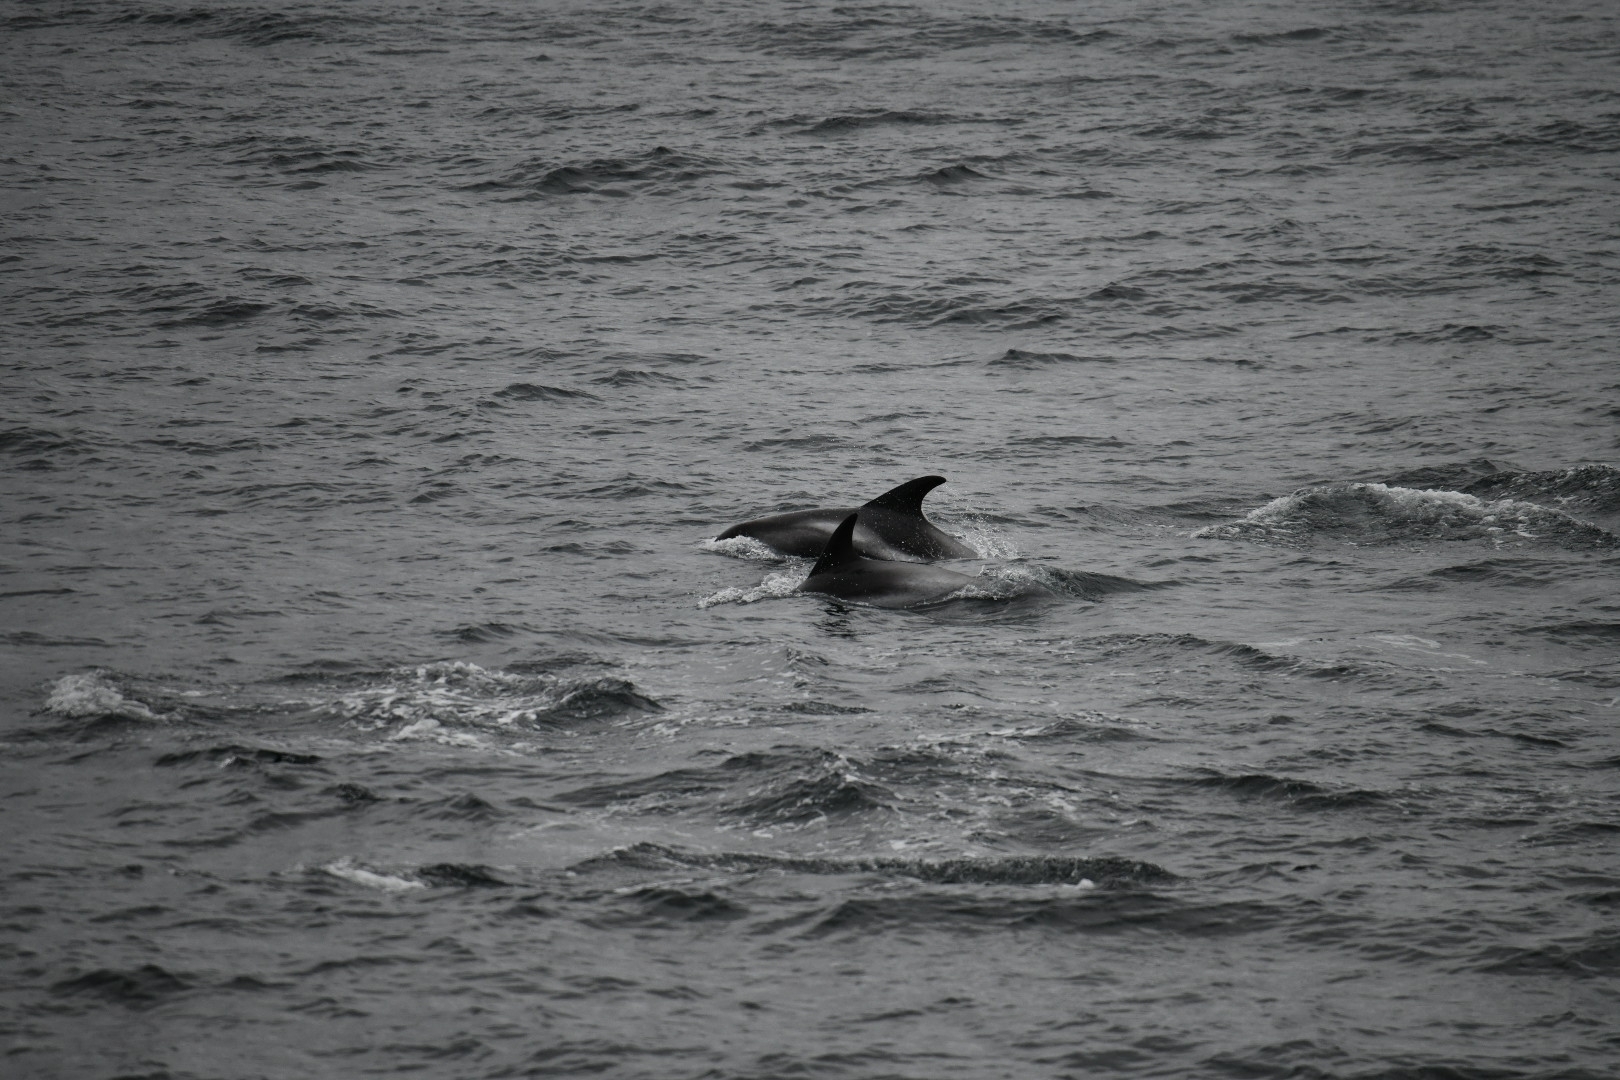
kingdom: Animalia
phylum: Chordata
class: Mammalia
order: Cetacea
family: Delphinidae
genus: Lagenorhynchus
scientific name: Lagenorhynchus albirostris
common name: White-beaked dolphin
